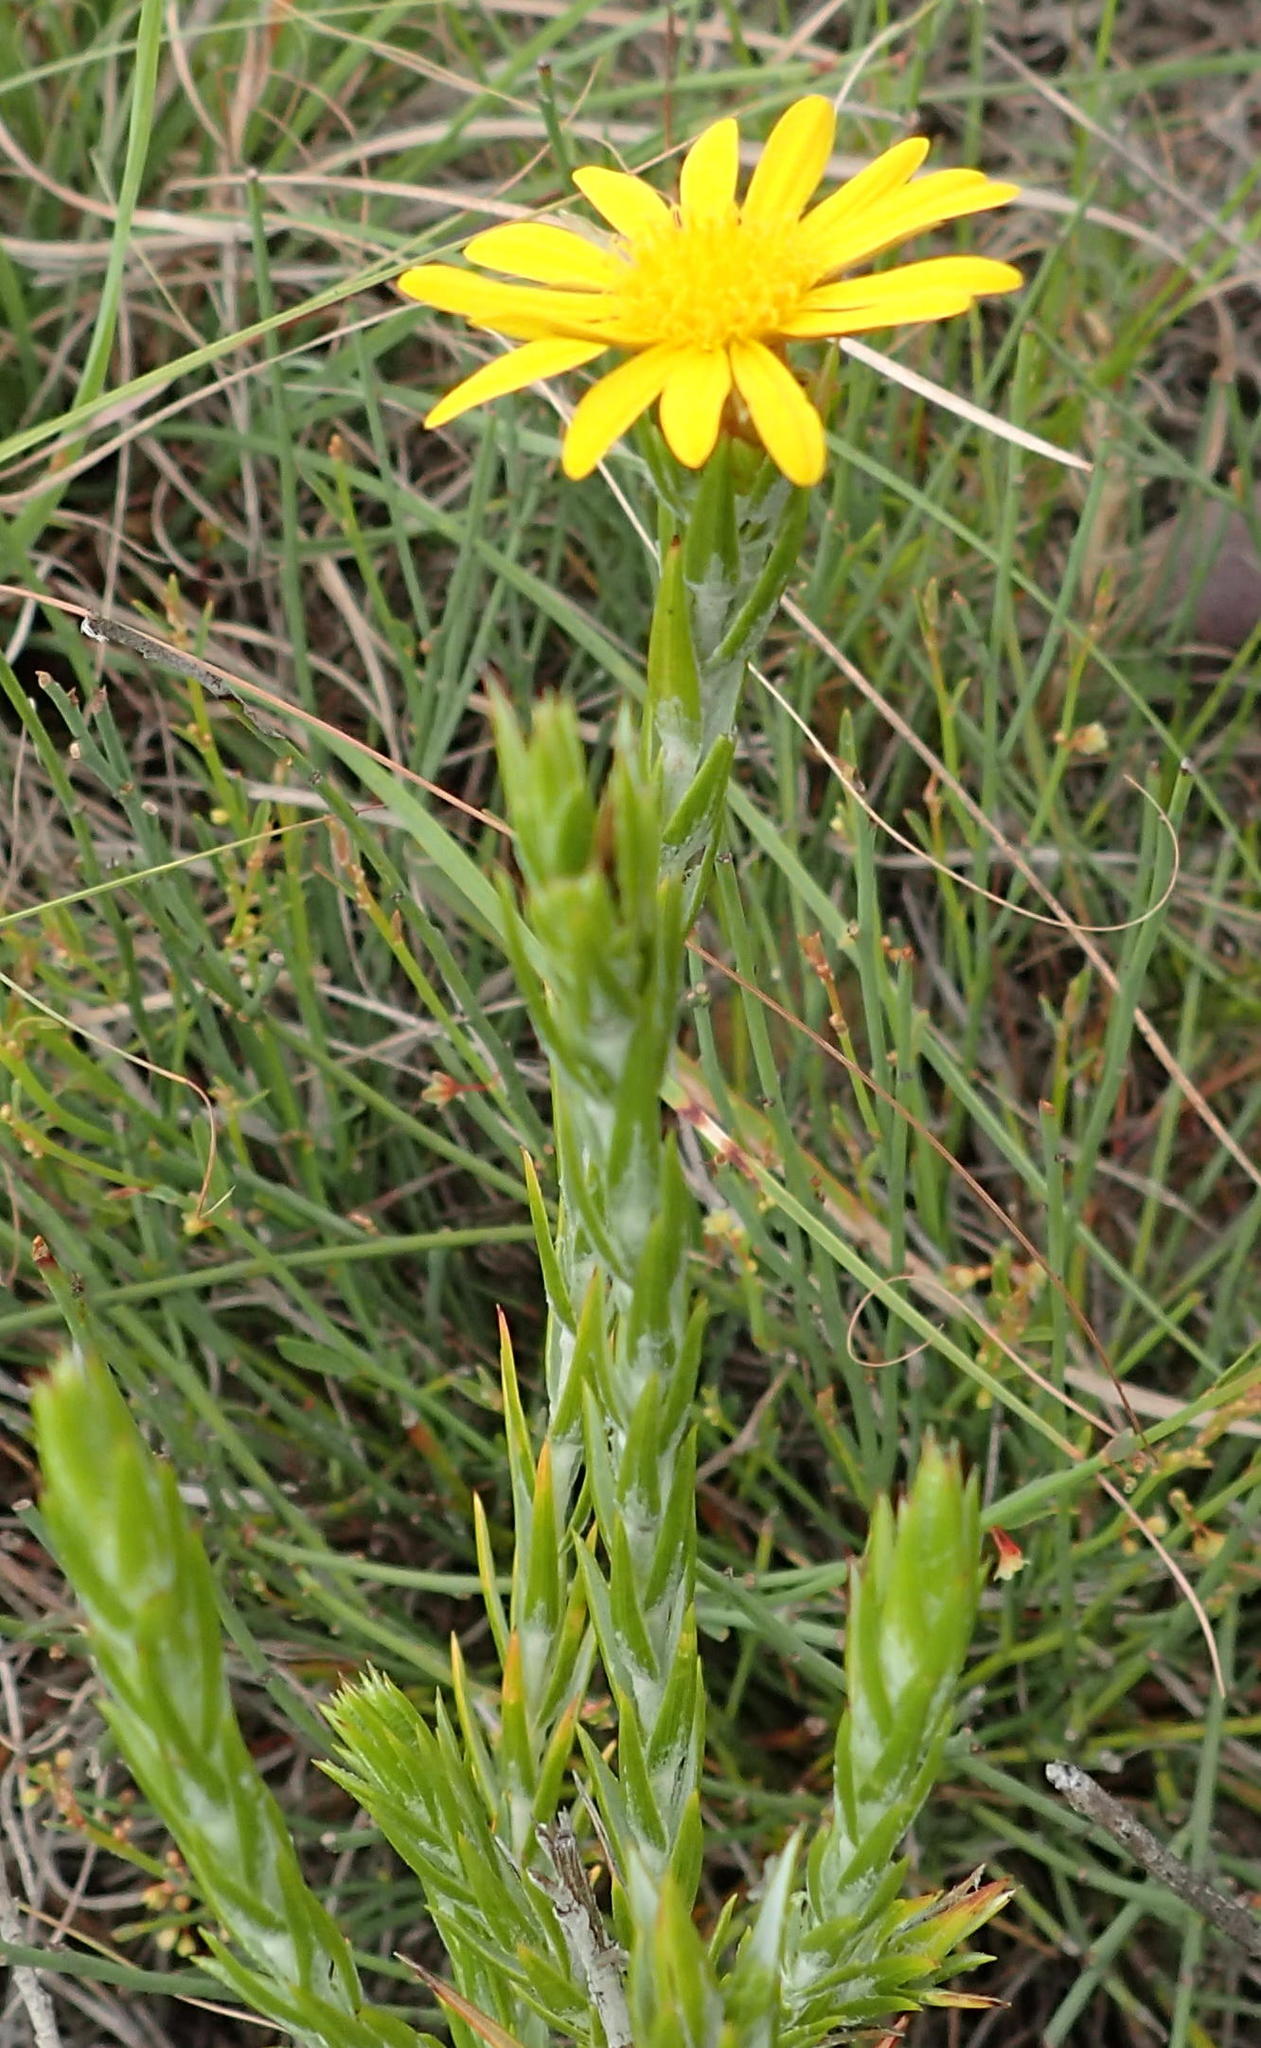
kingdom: Plantae
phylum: Tracheophyta
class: Magnoliopsida
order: Asterales
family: Asteraceae
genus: Oedera
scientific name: Oedera pungens
